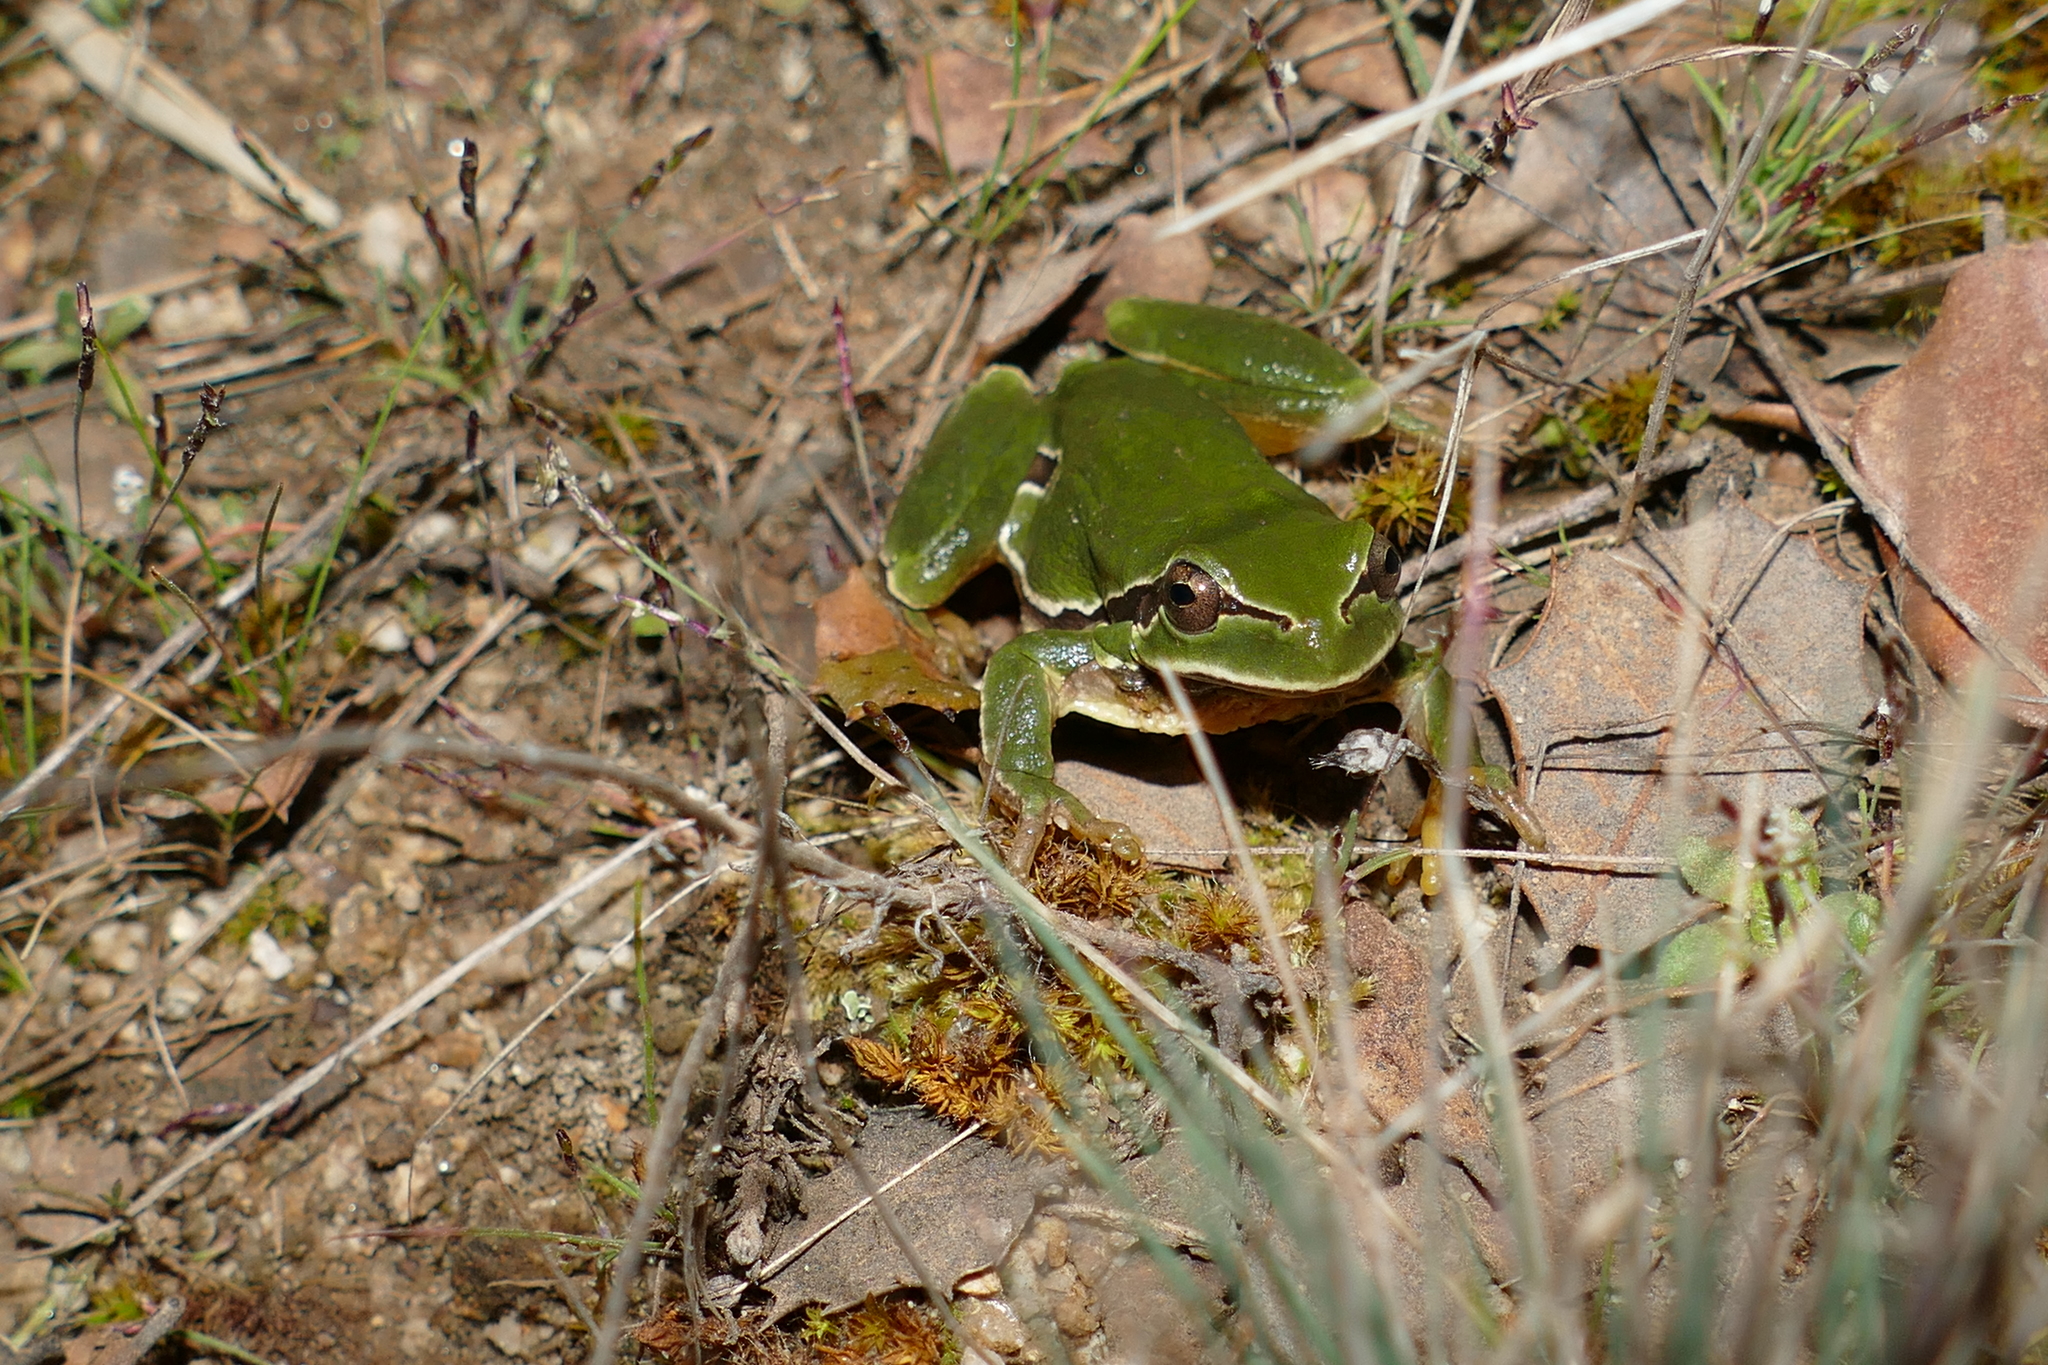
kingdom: Animalia
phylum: Chordata
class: Amphibia
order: Anura
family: Hylidae
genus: Hyla
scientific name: Hyla molleri
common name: Iberian tree frog
